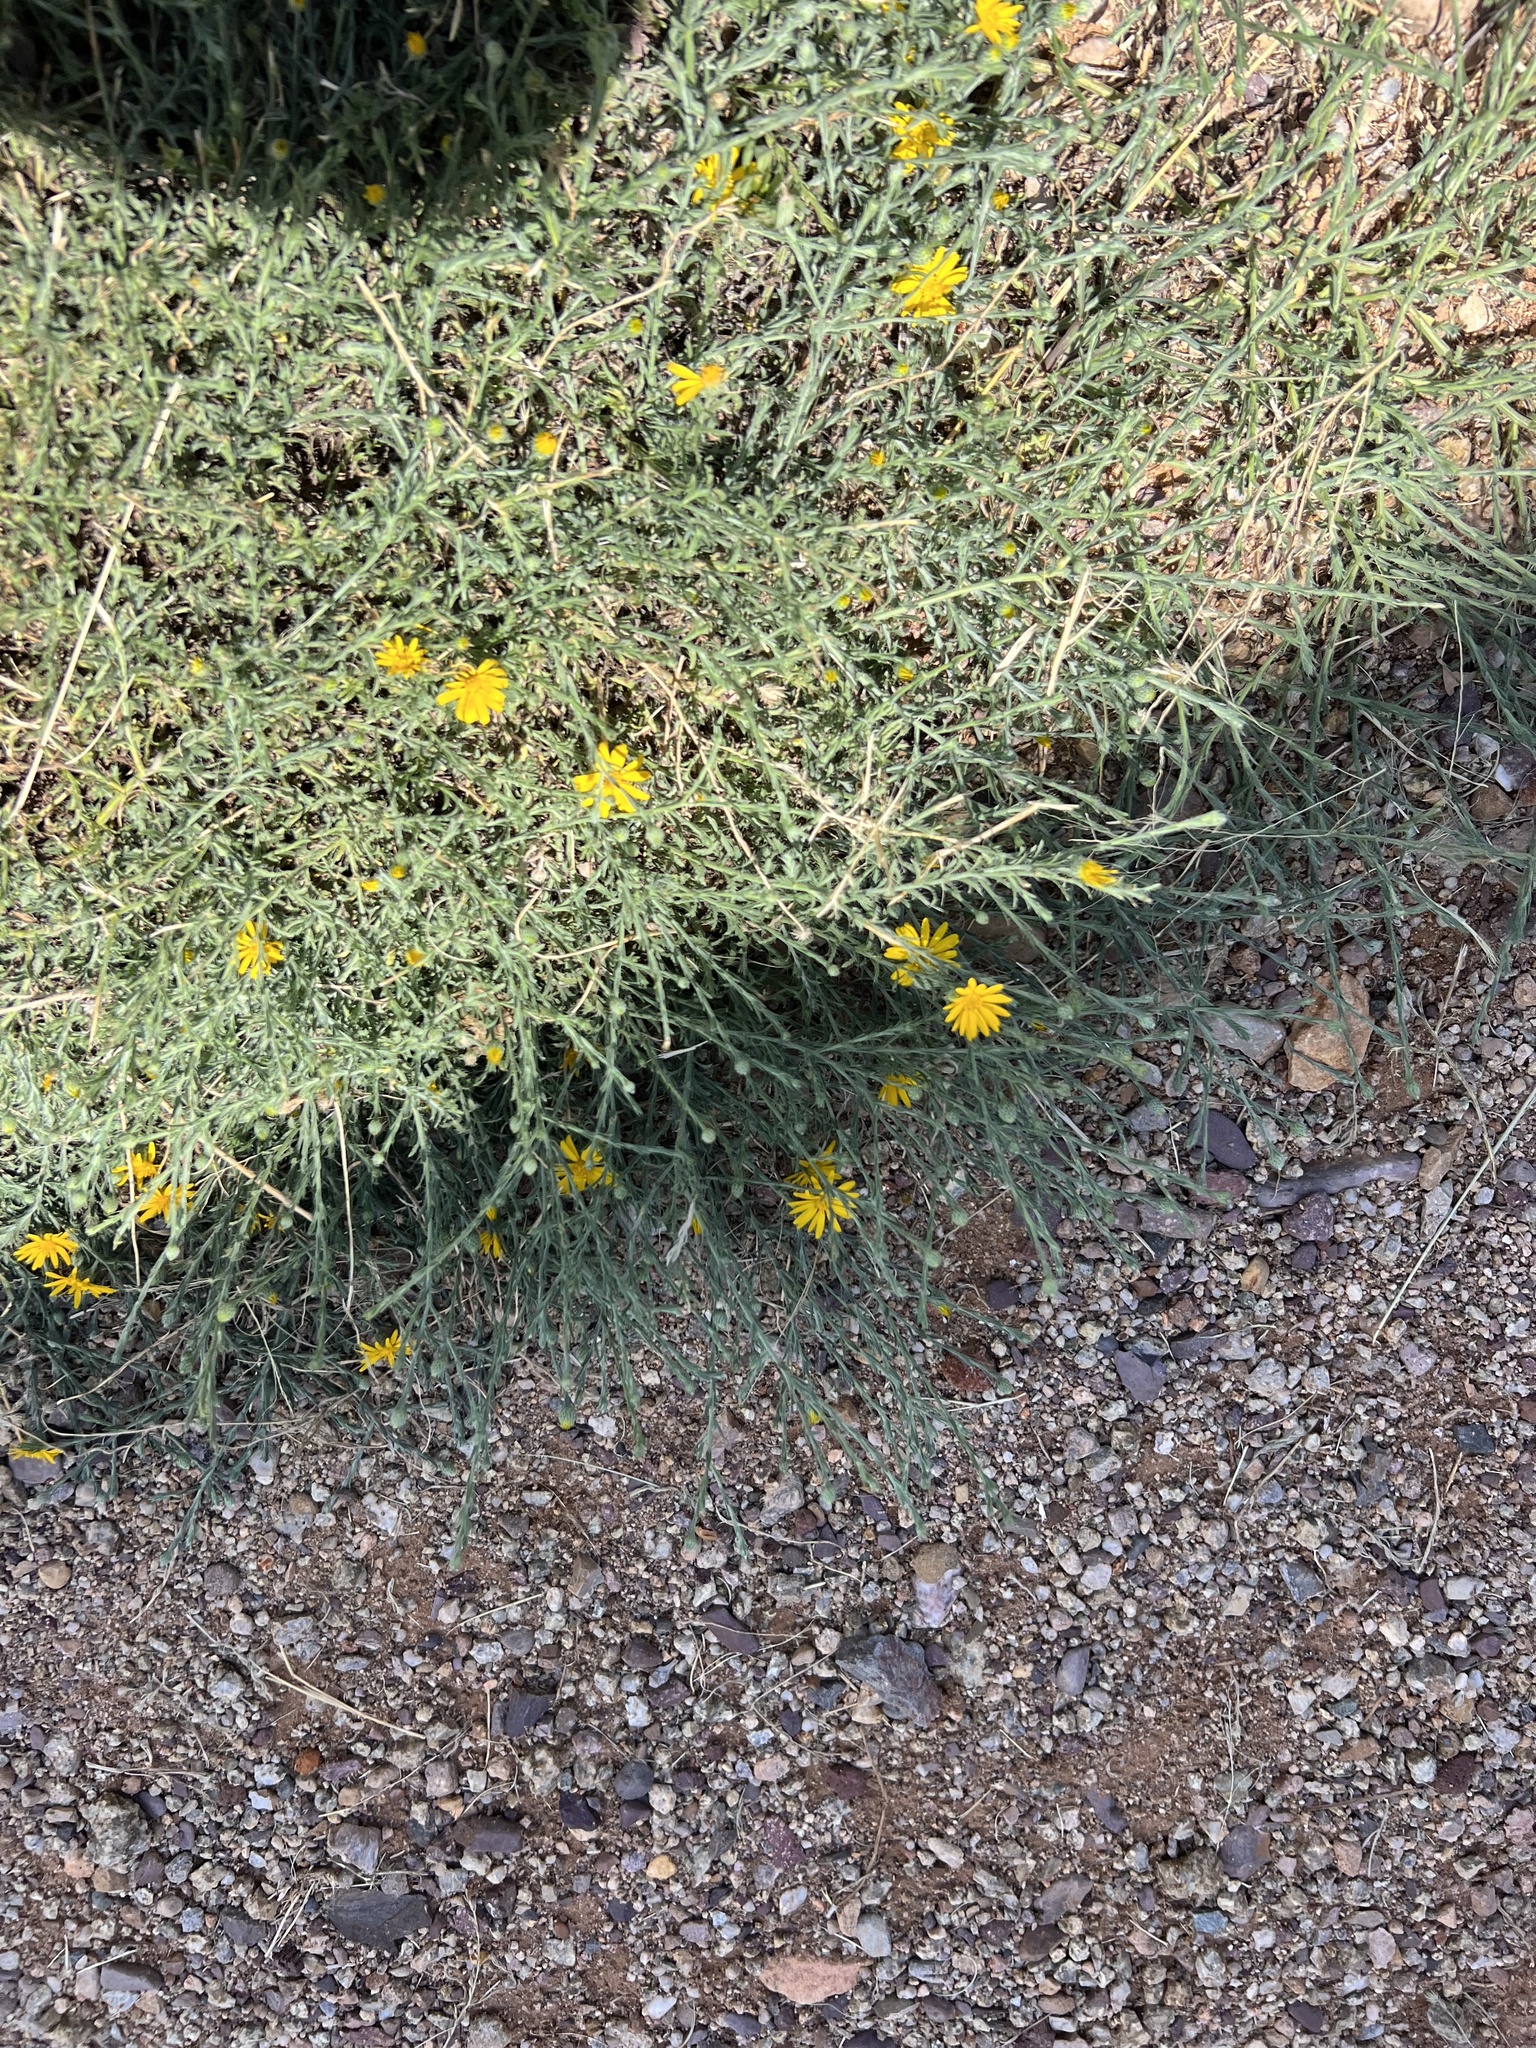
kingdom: Plantae
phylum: Tracheophyta
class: Magnoliopsida
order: Asterales
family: Asteraceae
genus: Xanthisma
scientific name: Xanthisma gracile
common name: Slender goldenweed
